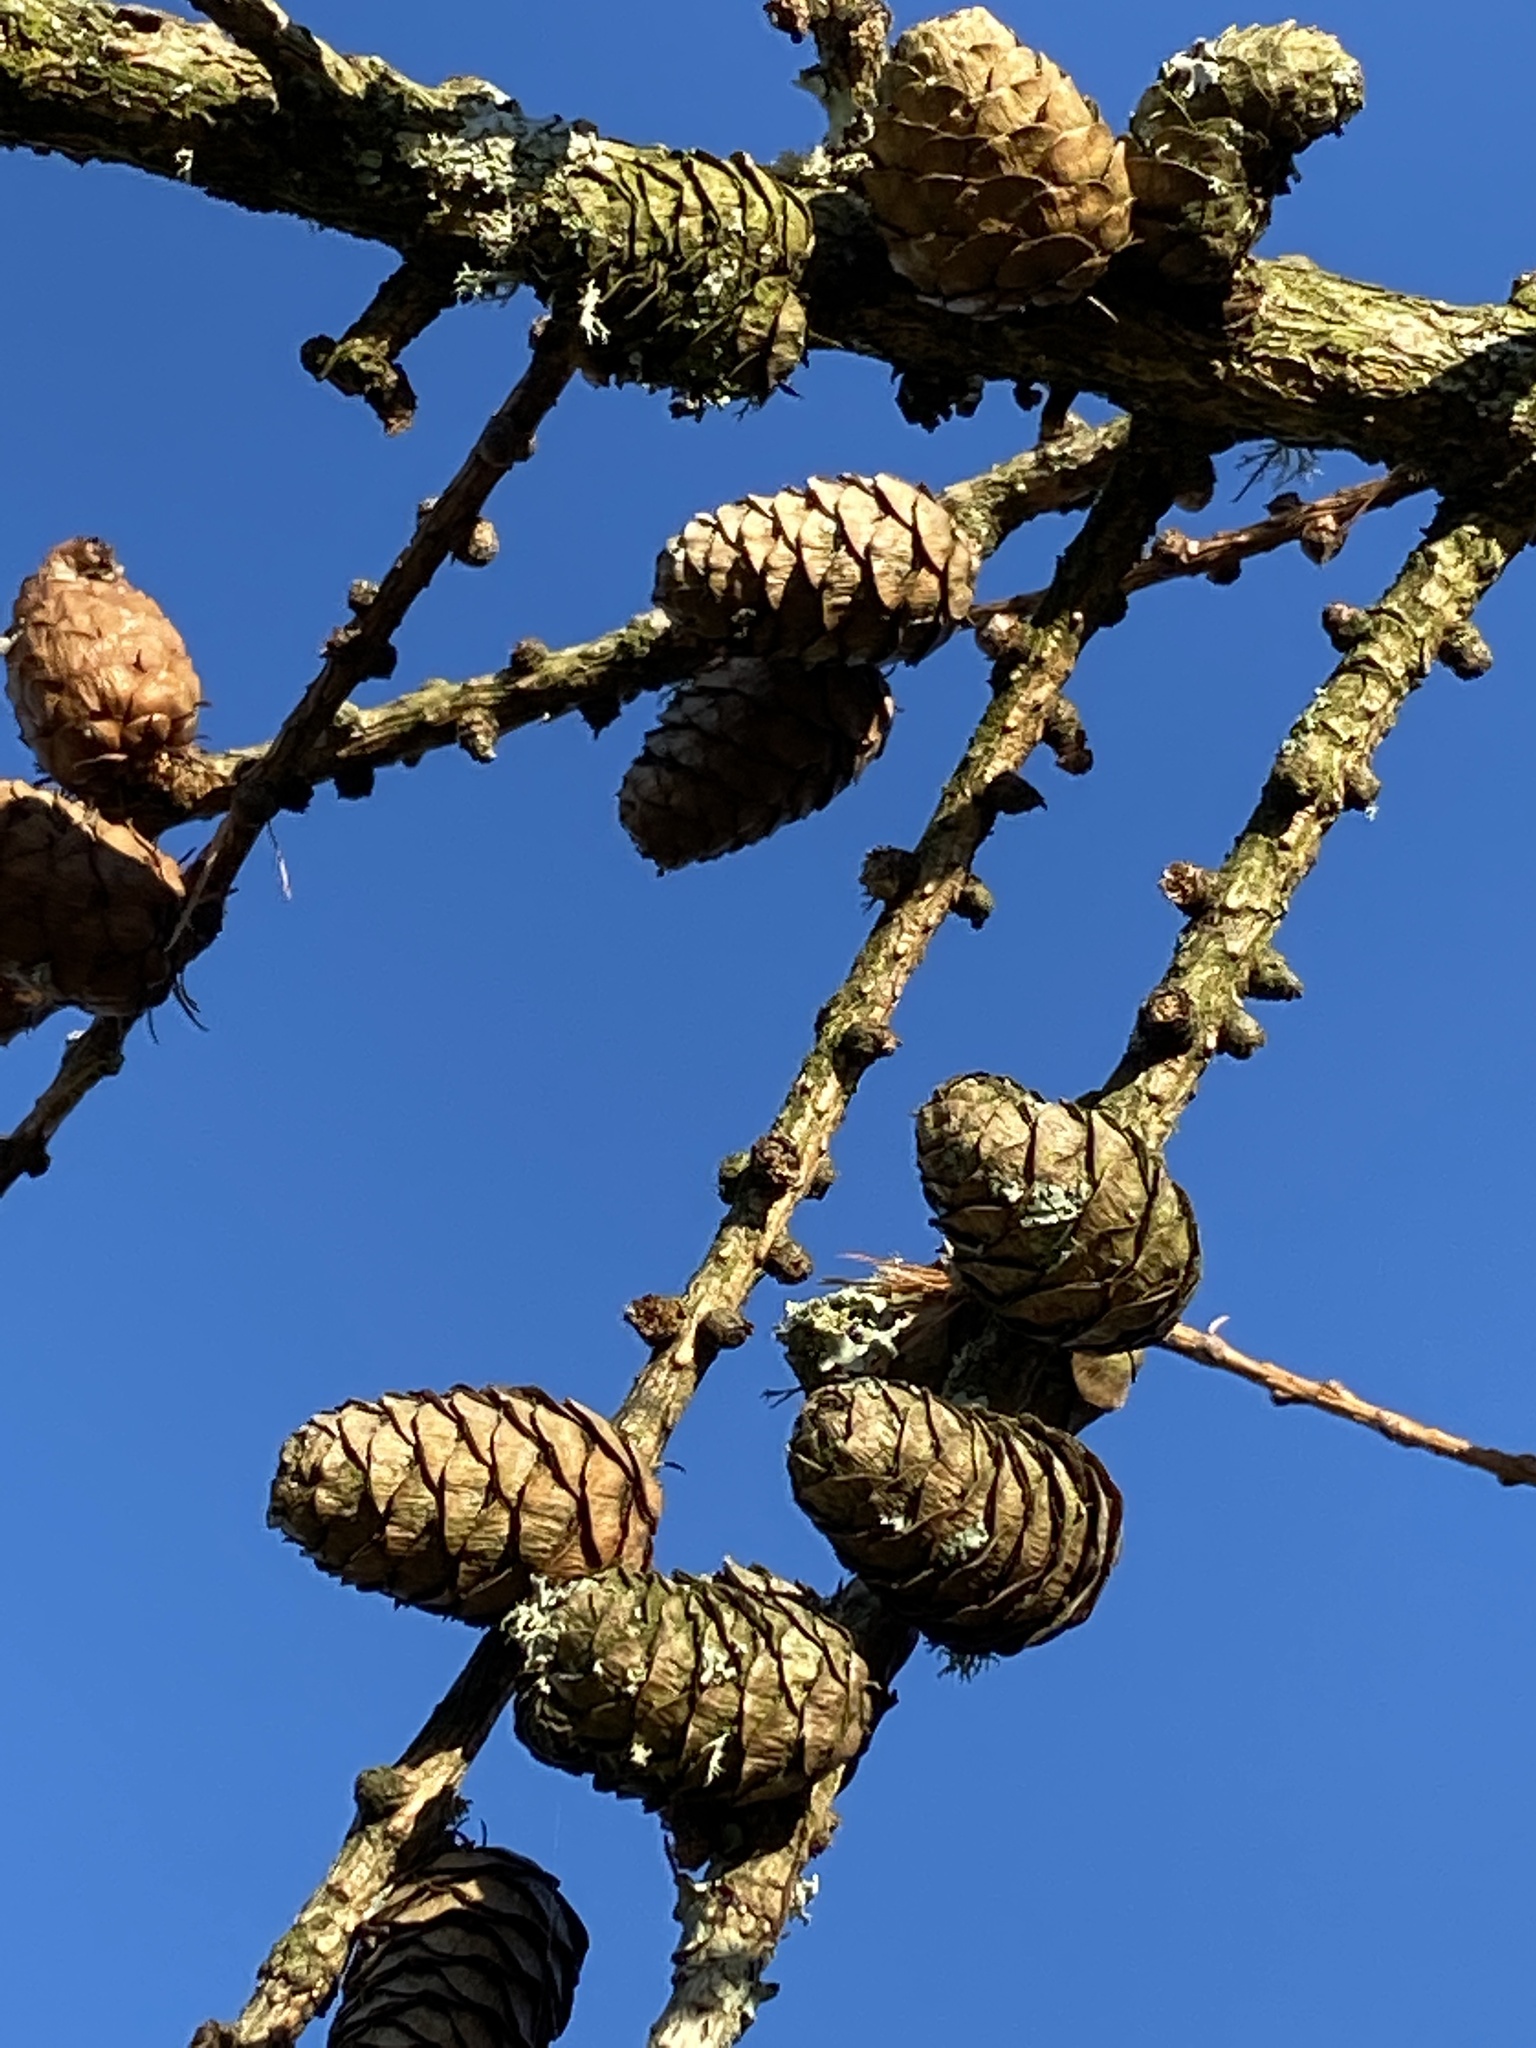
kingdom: Plantae
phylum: Tracheophyta
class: Pinopsida
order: Pinales
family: Pinaceae
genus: Larix
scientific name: Larix decidua
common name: European larch
